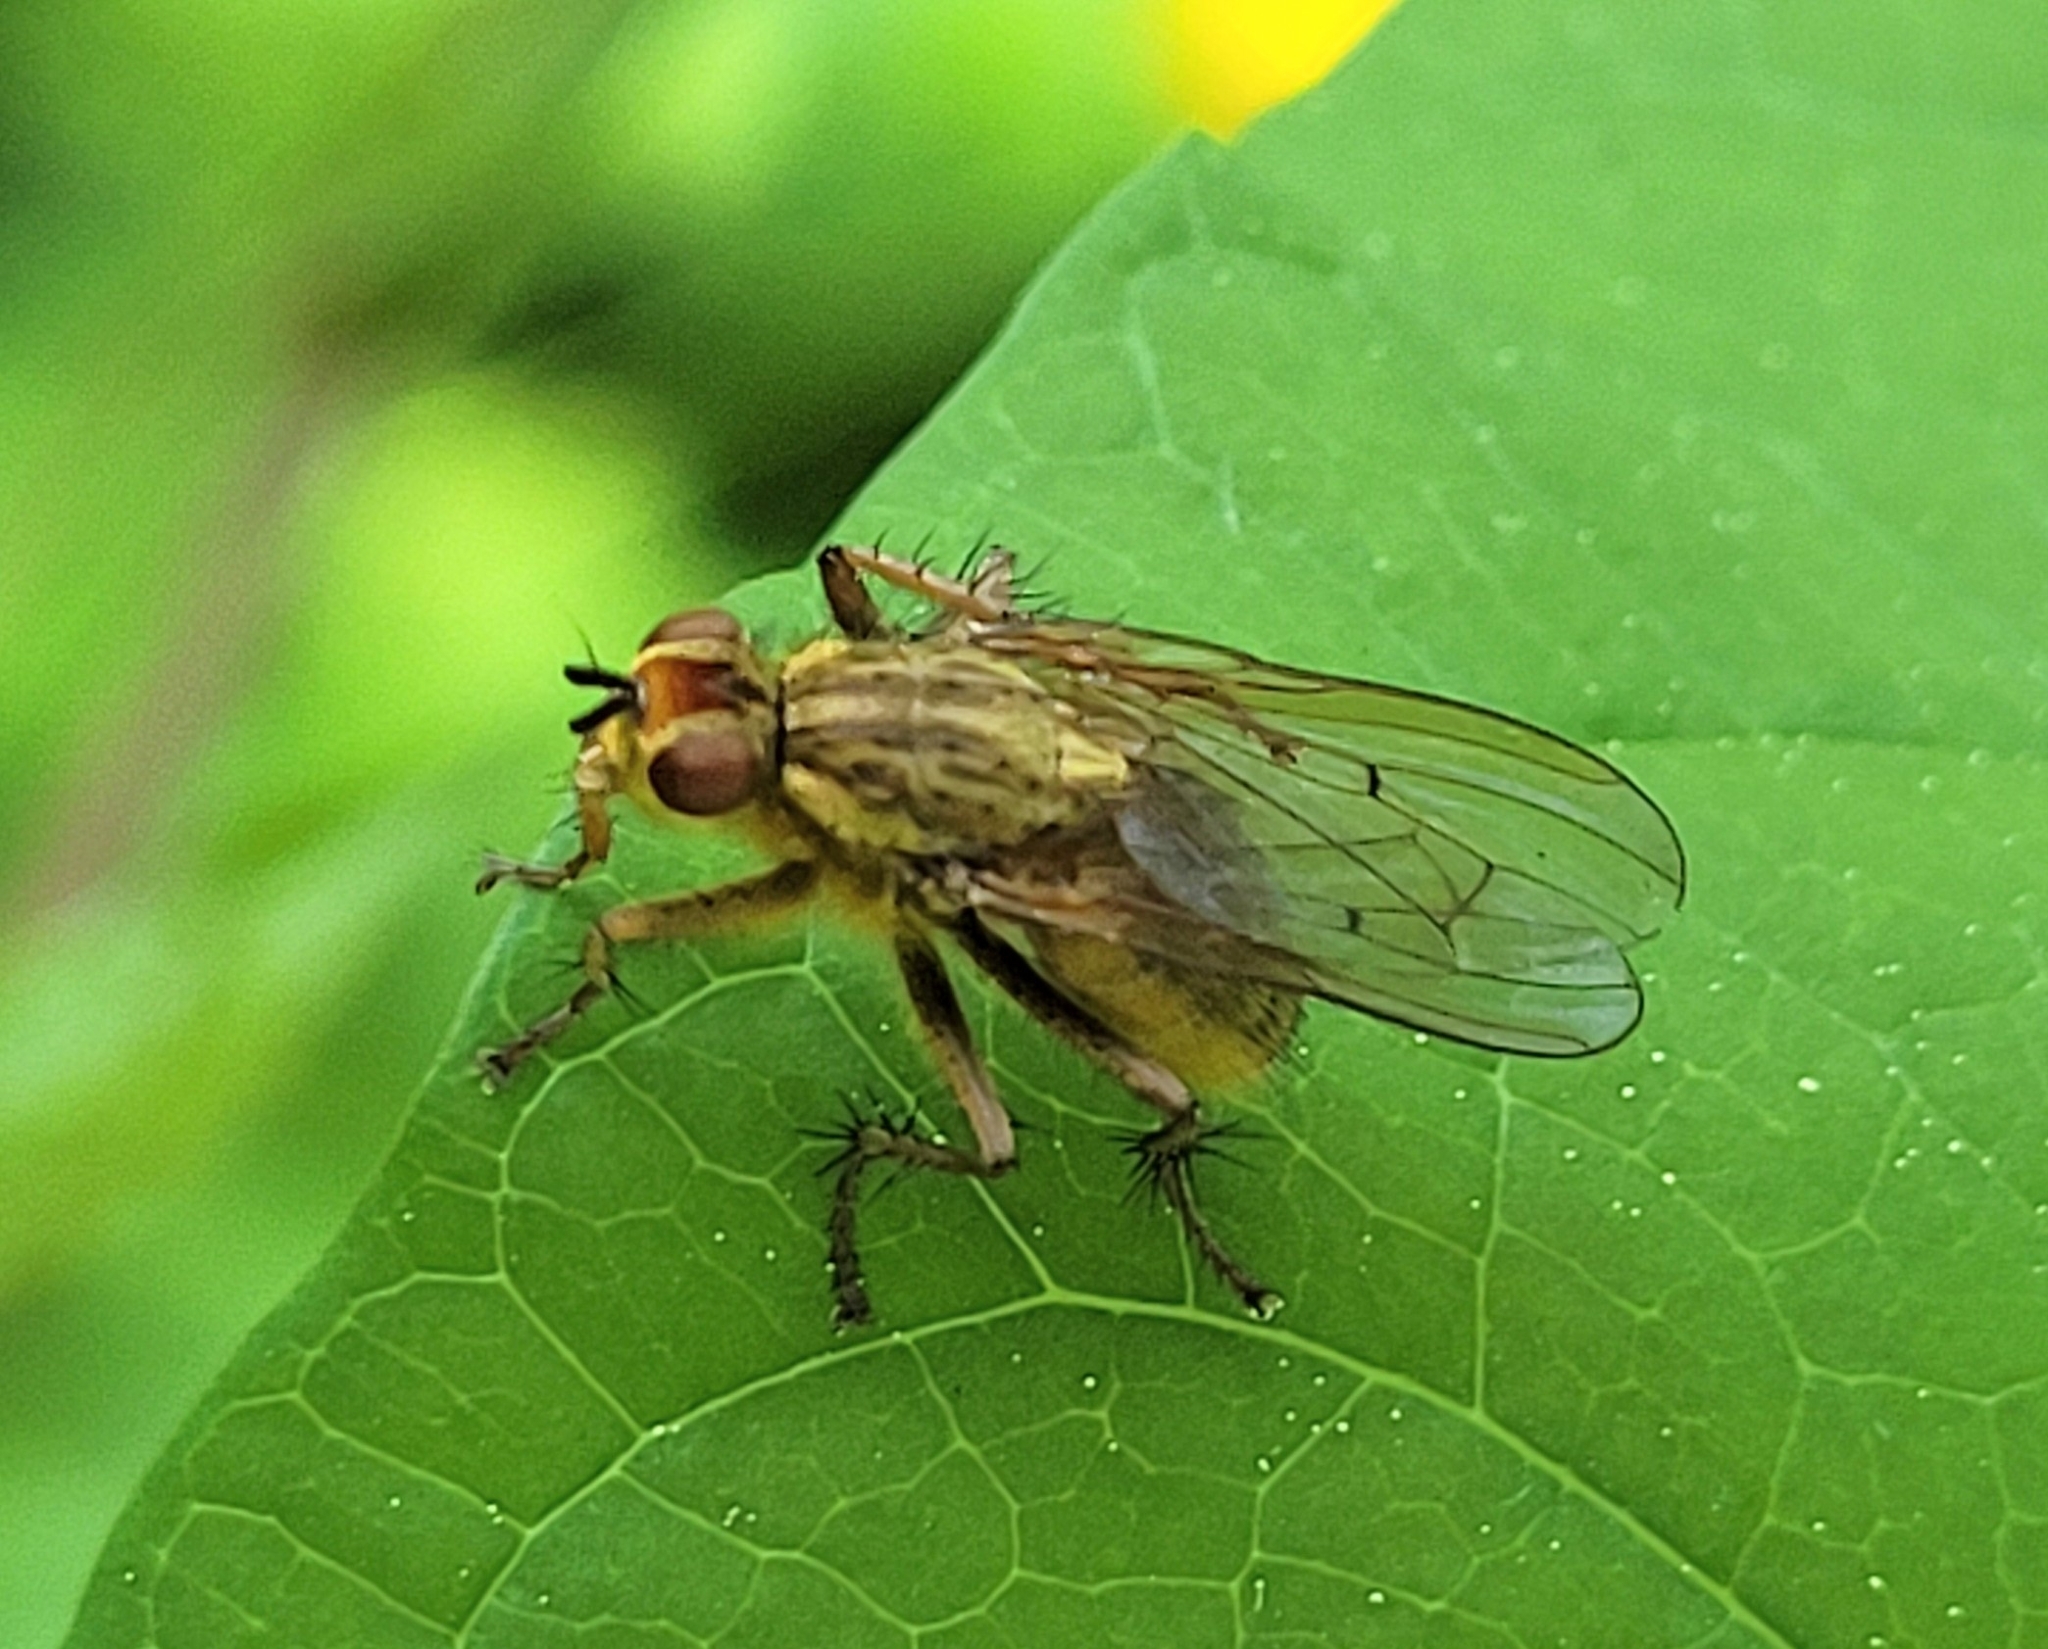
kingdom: Animalia
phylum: Arthropoda
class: Insecta
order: Diptera
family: Scathophagidae
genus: Scathophaga
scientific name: Scathophaga stercoraria
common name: Yellow dung fly
